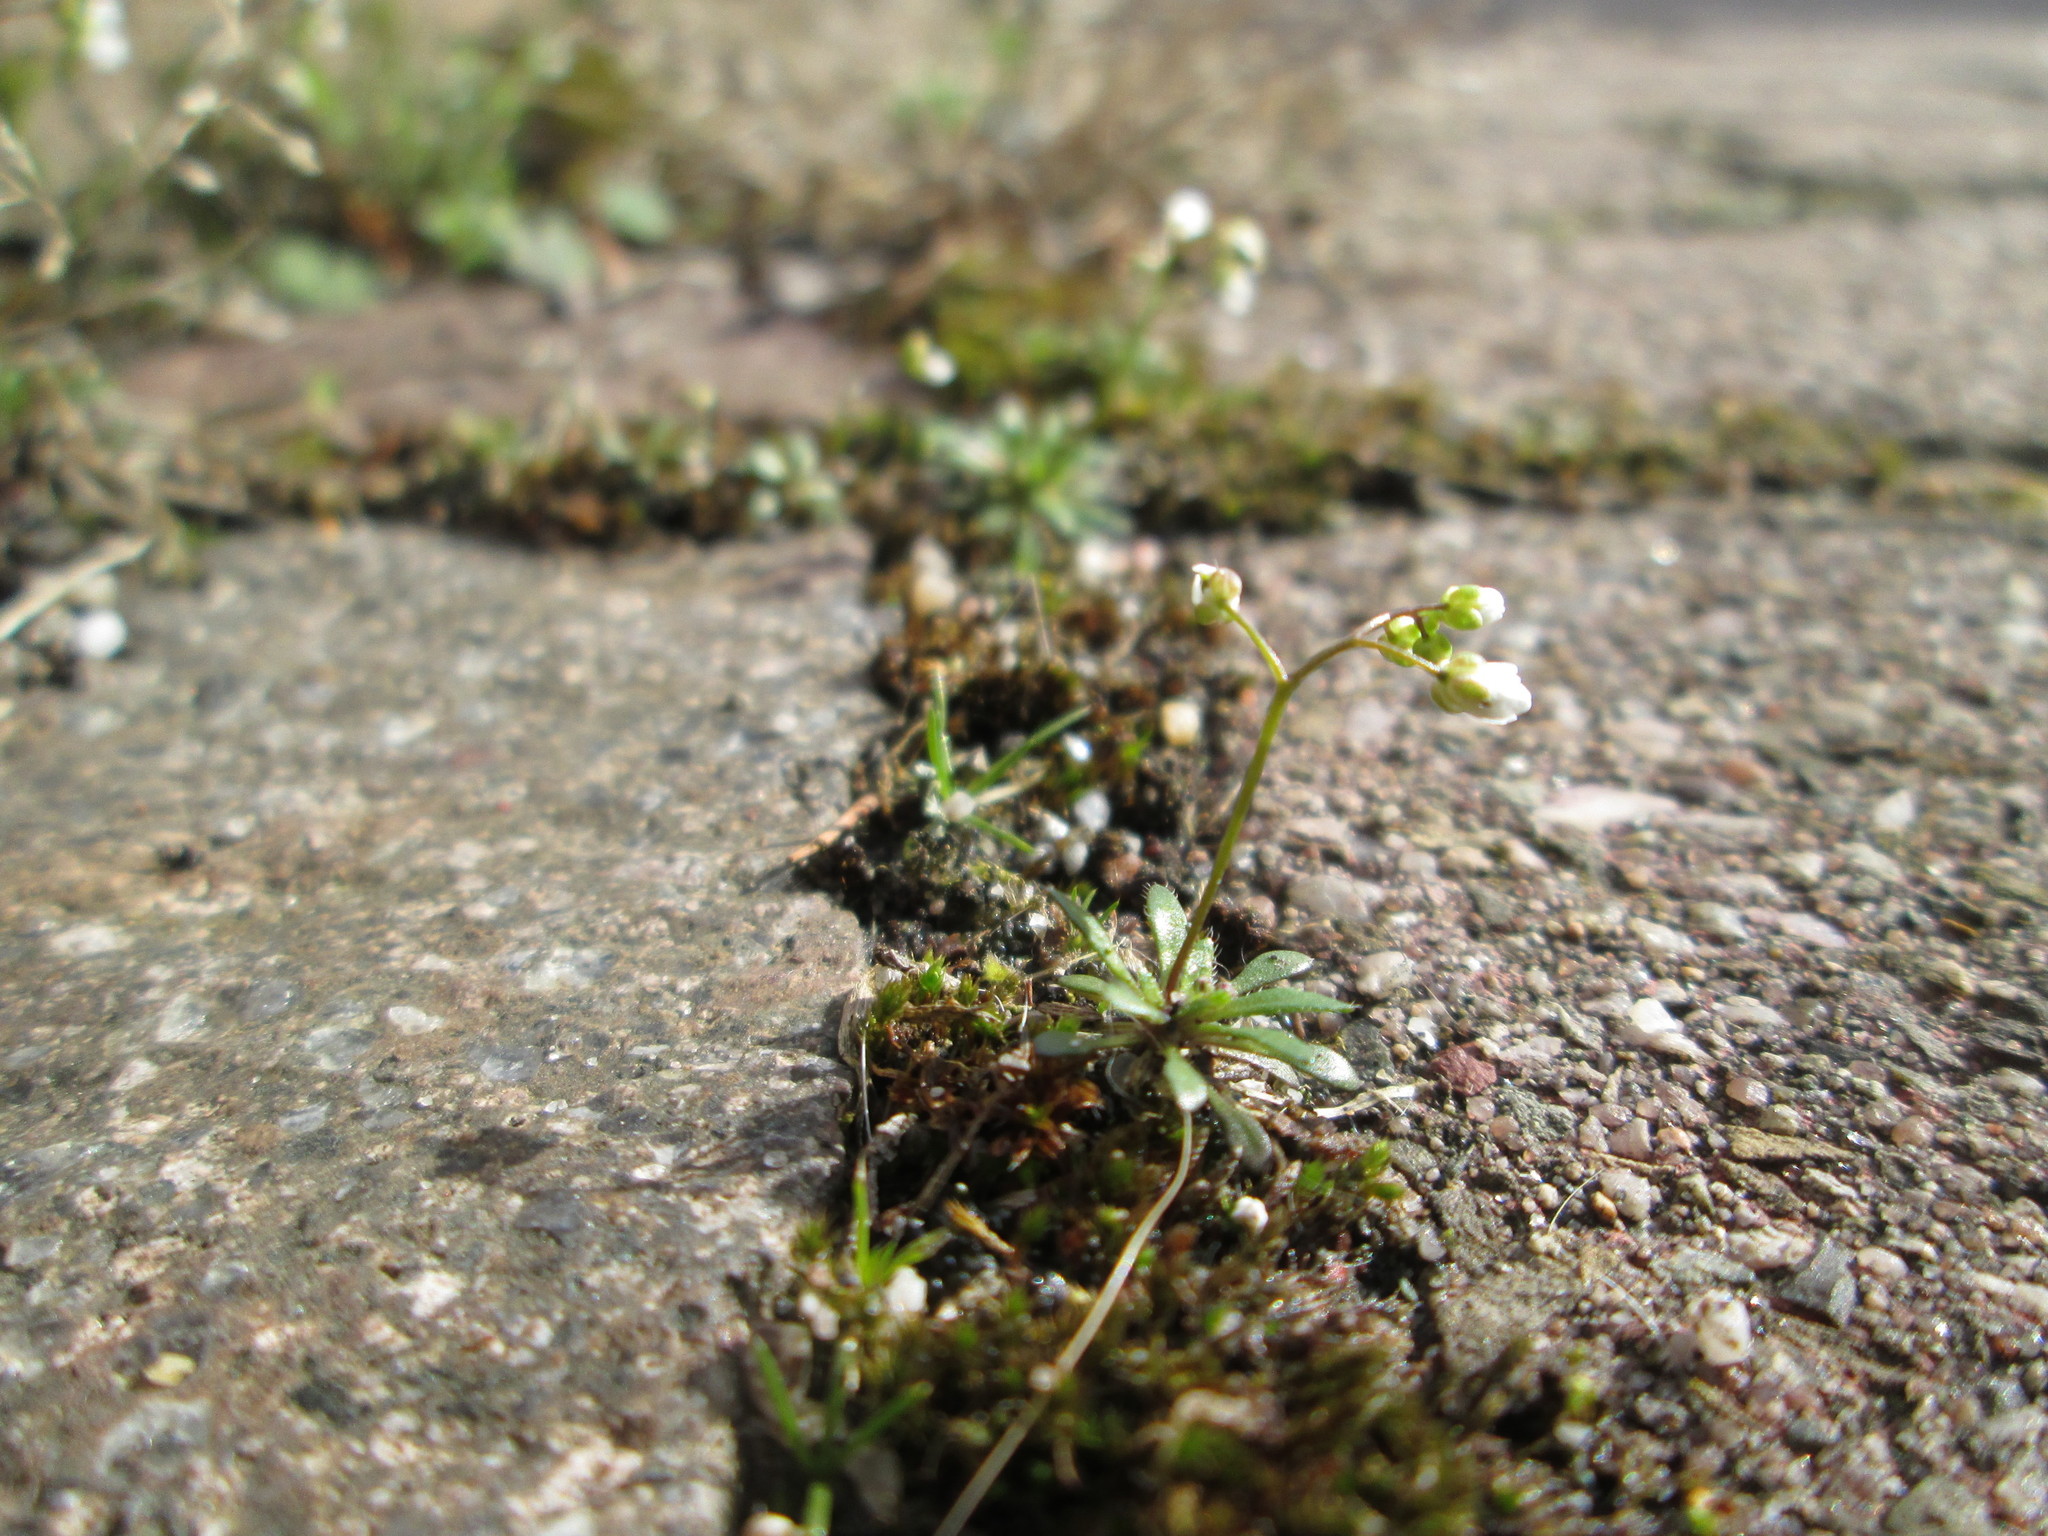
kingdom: Plantae
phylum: Tracheophyta
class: Magnoliopsida
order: Brassicales
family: Brassicaceae
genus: Draba
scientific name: Draba verna
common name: Spring draba
